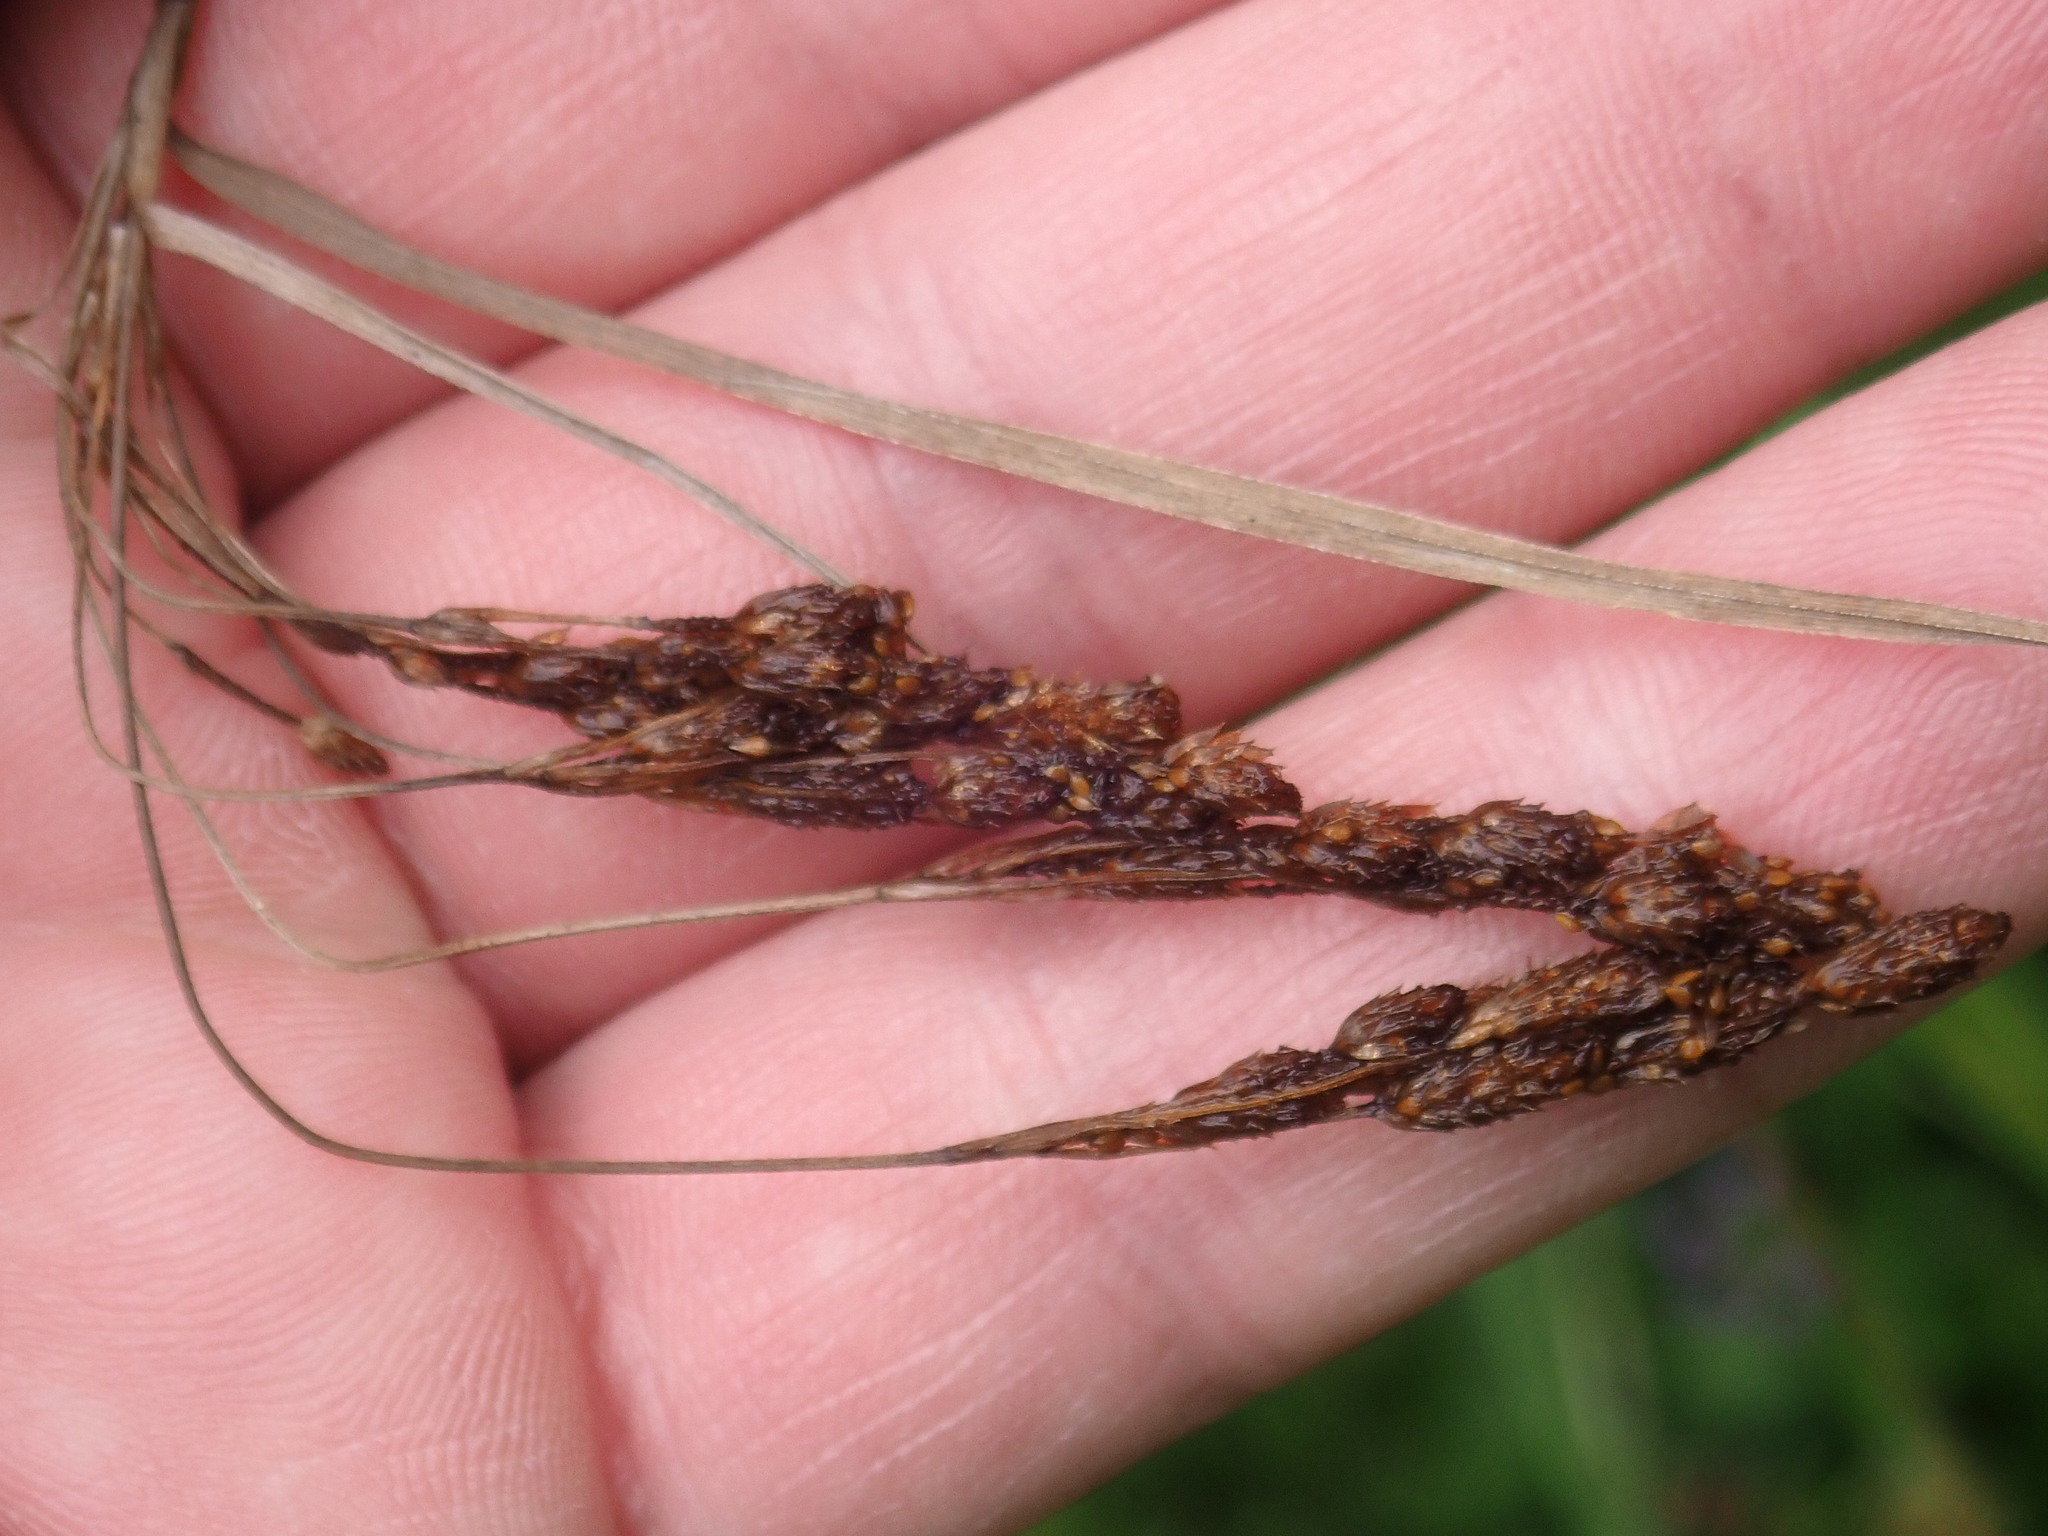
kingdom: Plantae
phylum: Tracheophyta
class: Liliopsida
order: Poales
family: Cyperaceae
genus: Scirpus
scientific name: Scirpus cyperinus
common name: Black-sheathed bulrush
